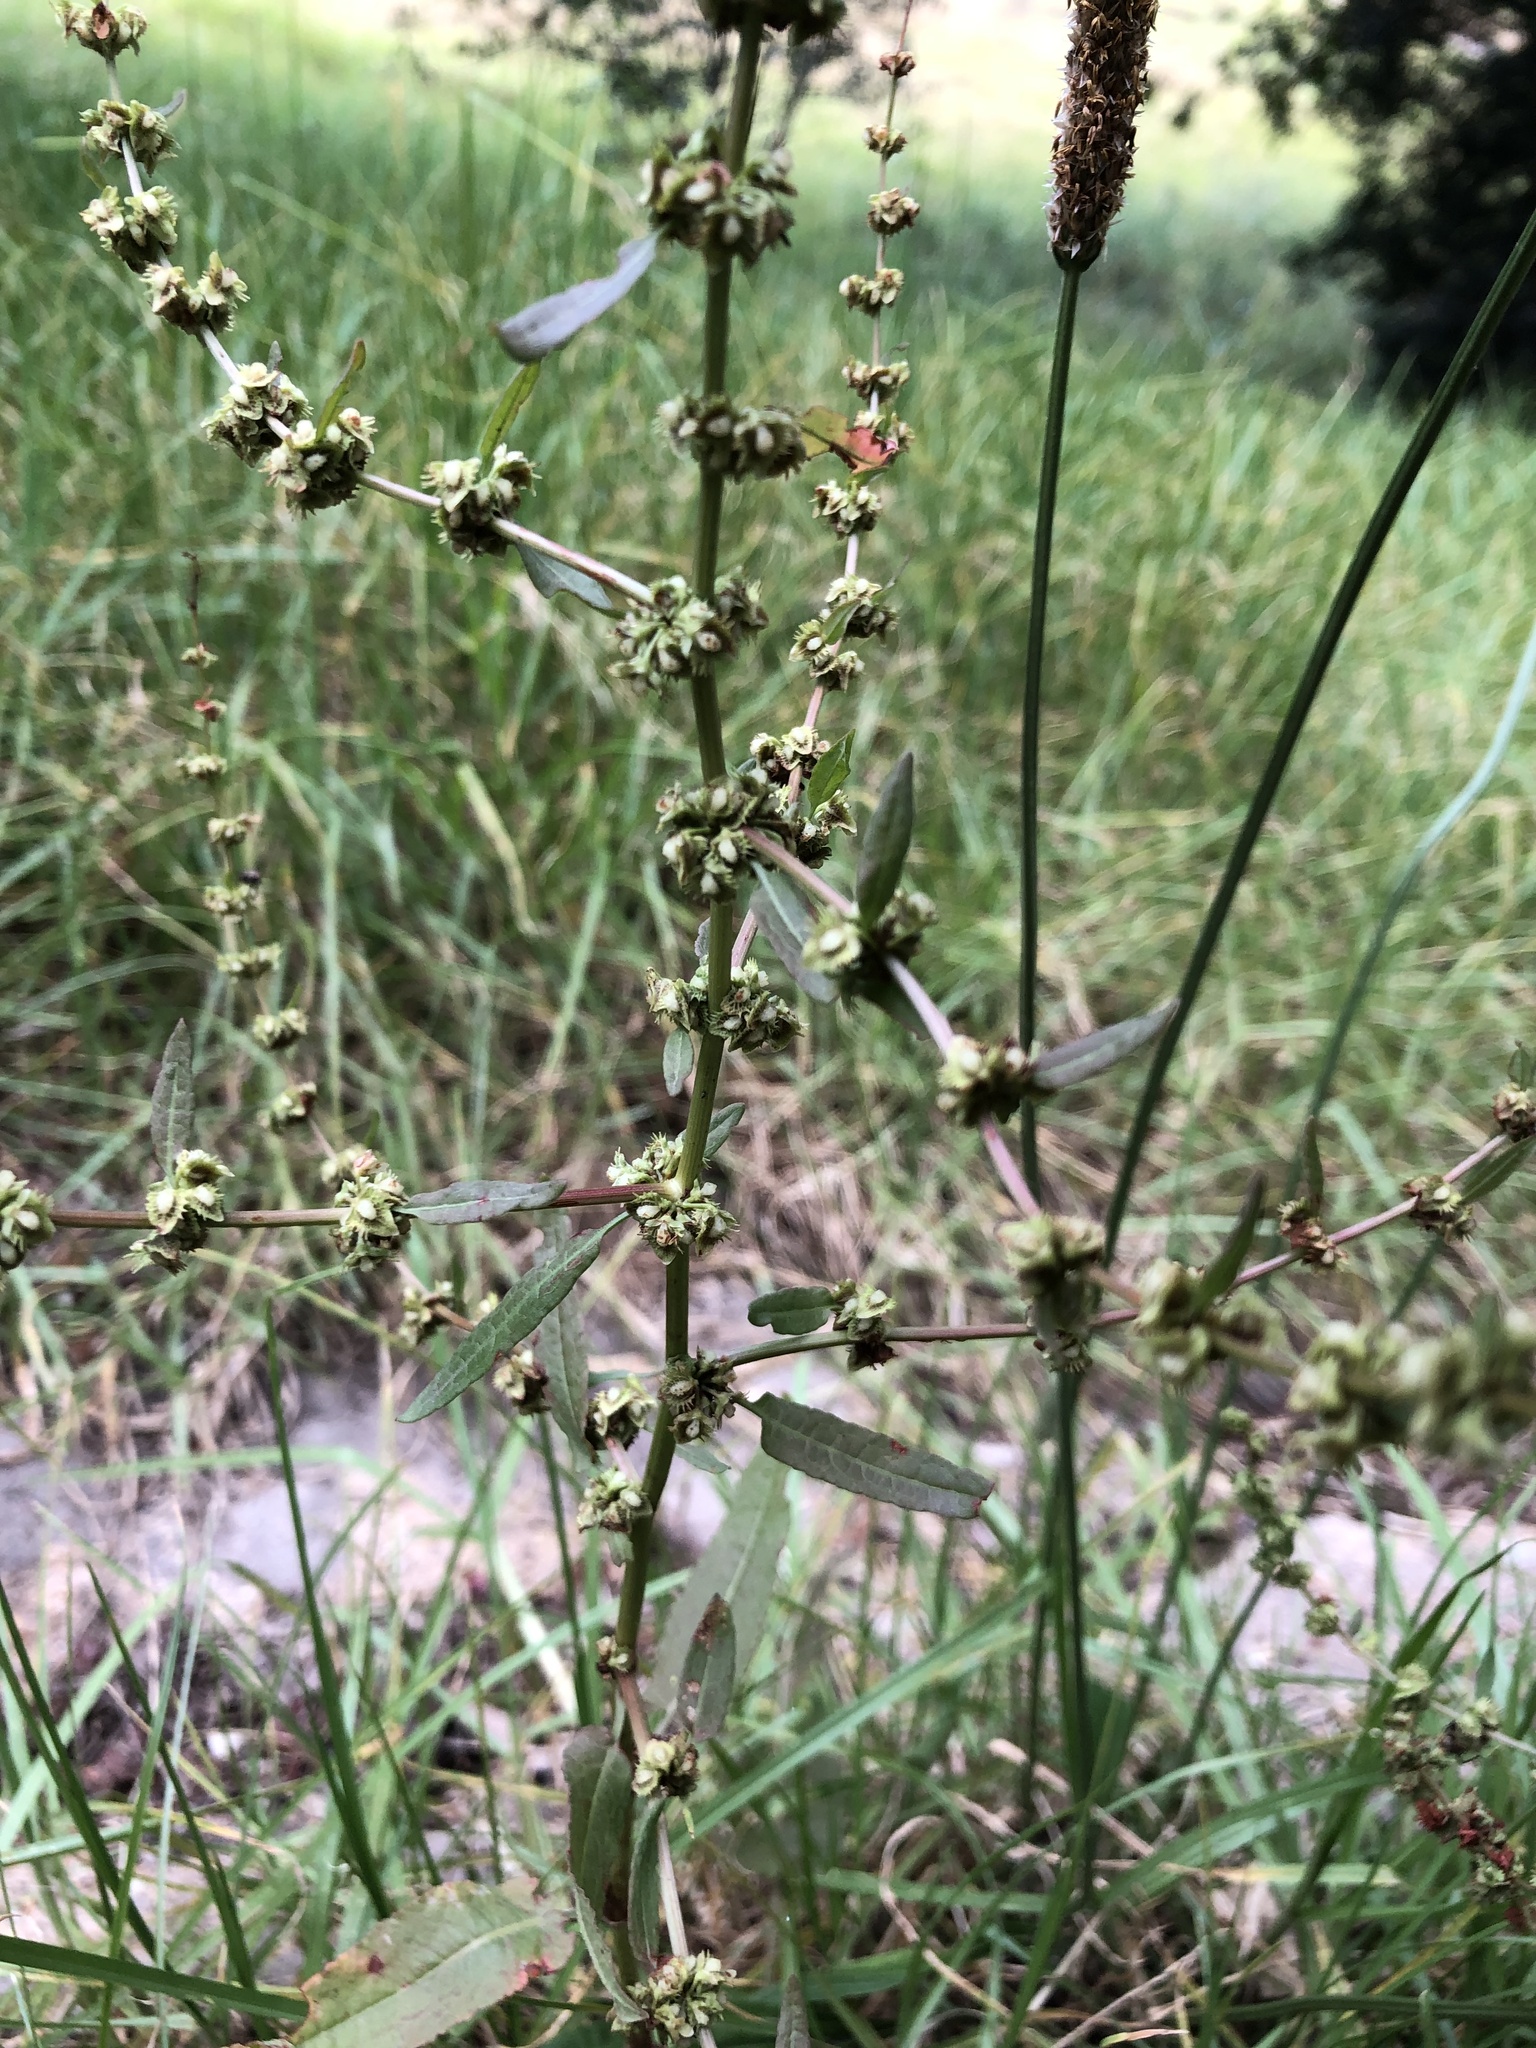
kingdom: Plantae
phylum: Tracheophyta
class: Magnoliopsida
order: Caryophyllales
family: Polygonaceae
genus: Rumex
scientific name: Rumex pulcher
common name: Fiddle dock
